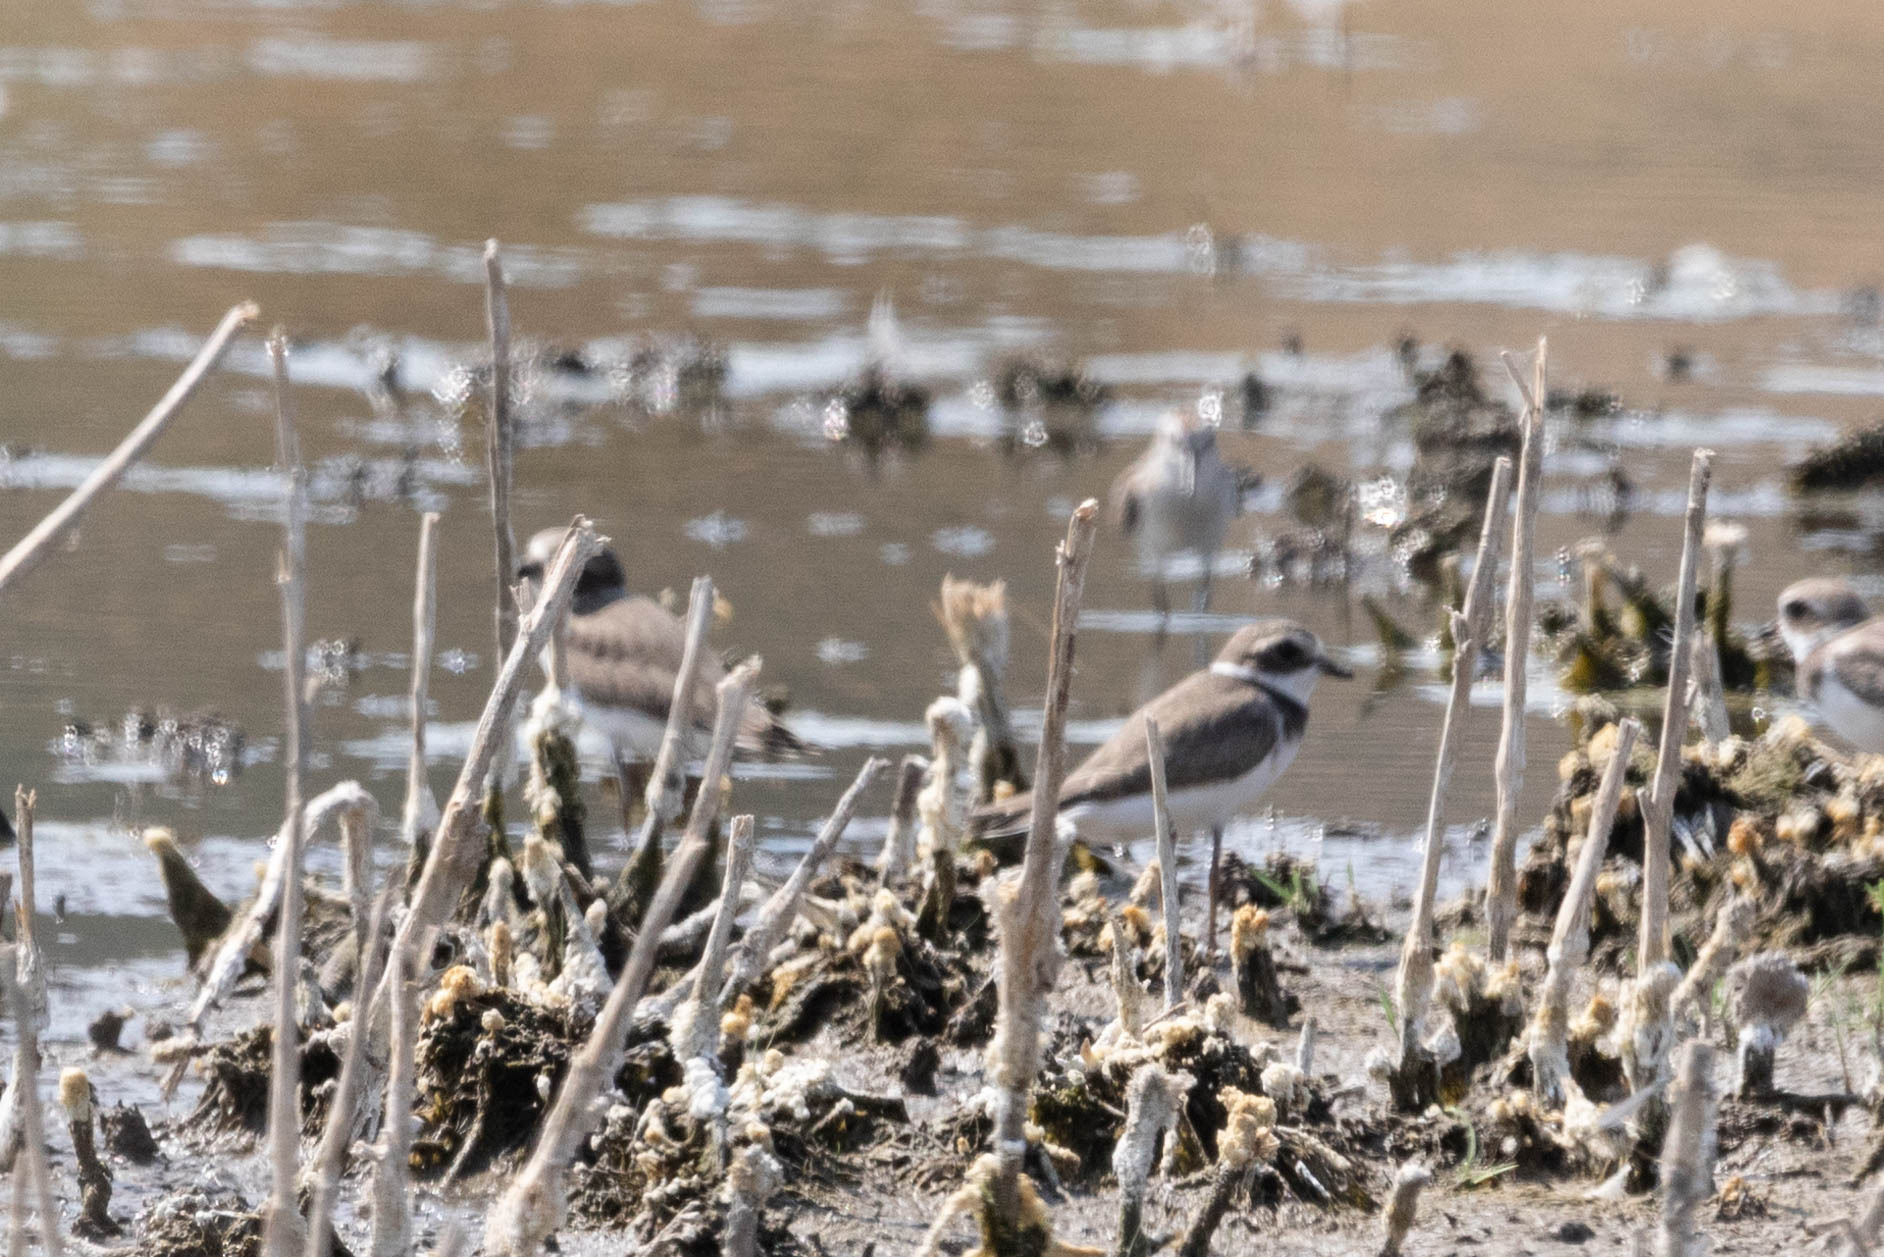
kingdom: Animalia
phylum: Chordata
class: Aves
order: Charadriiformes
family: Charadriidae
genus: Charadrius
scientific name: Charadrius semipalmatus
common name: Semipalmated plover
